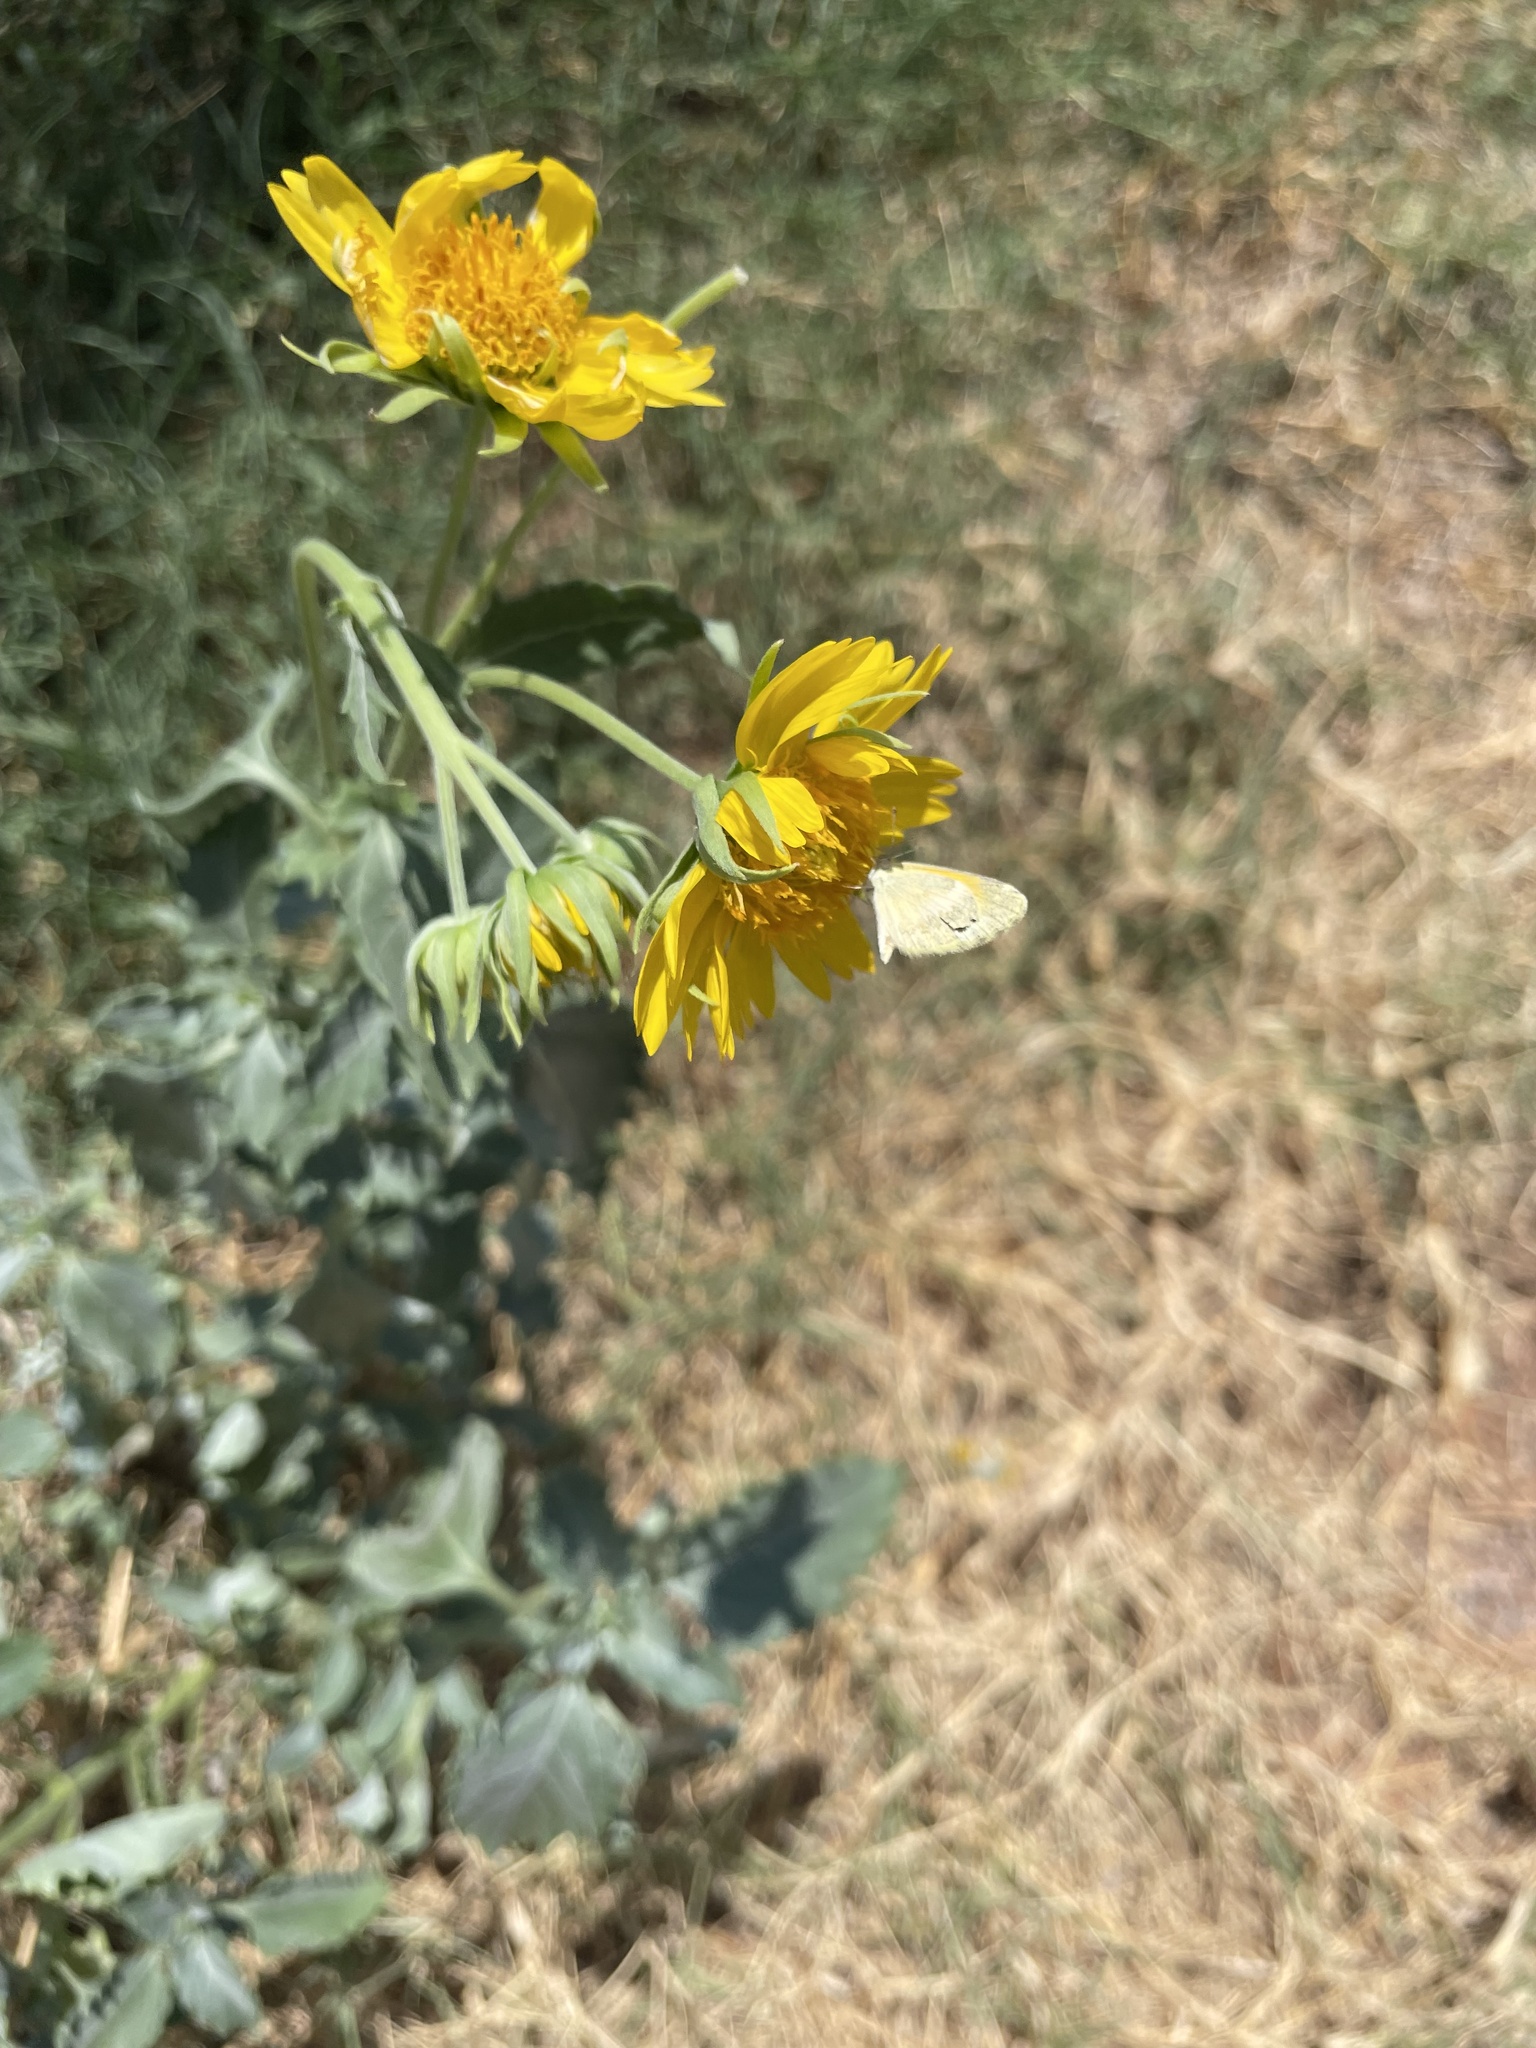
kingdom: Animalia
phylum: Arthropoda
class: Insecta
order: Lepidoptera
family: Pieridae
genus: Nathalis
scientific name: Nathalis iole
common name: Dainty sulphur
